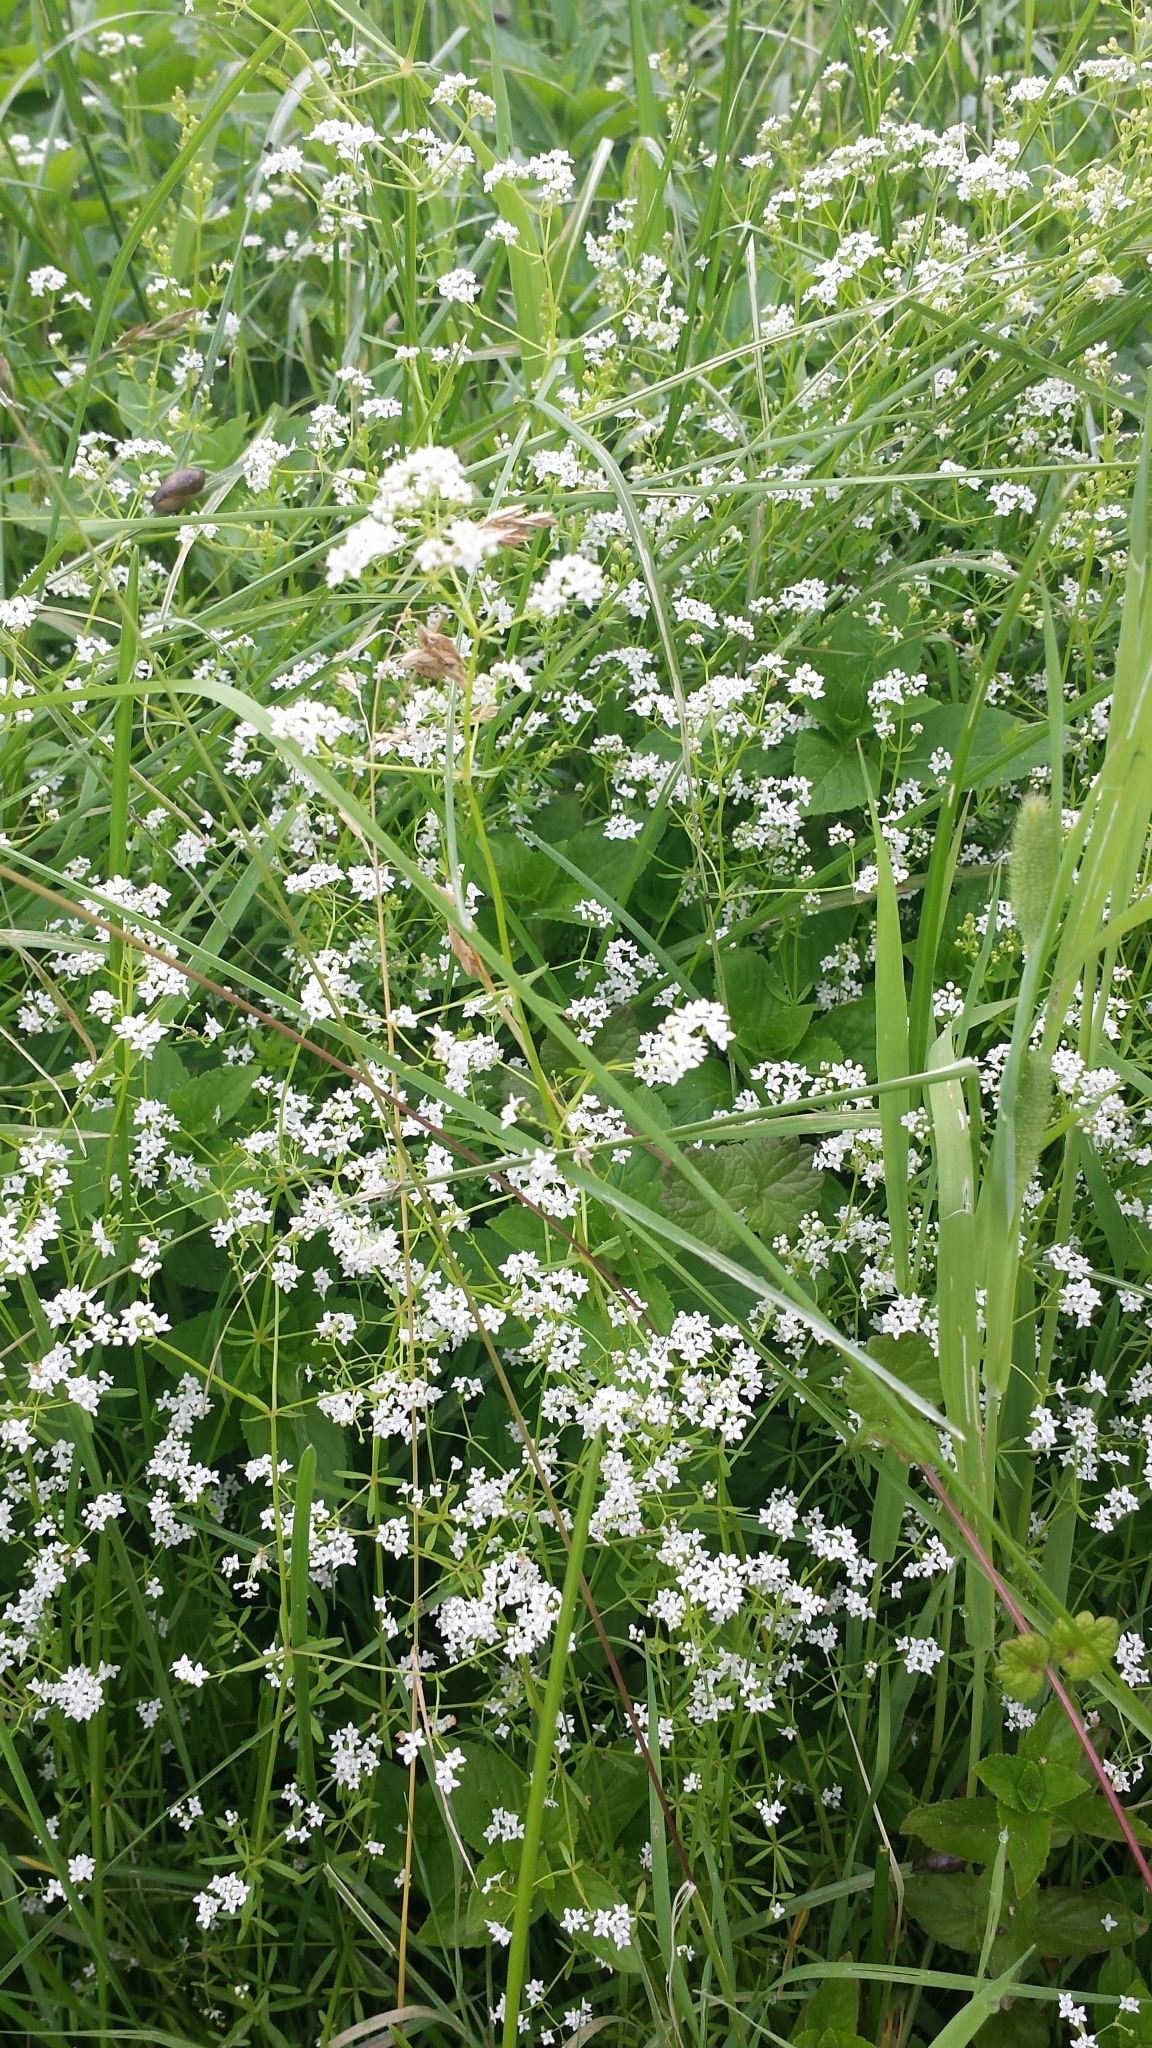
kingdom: Plantae
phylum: Tracheophyta
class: Magnoliopsida
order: Gentianales
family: Rubiaceae
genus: Galium
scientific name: Galium palustre
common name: Common marsh-bedstraw
